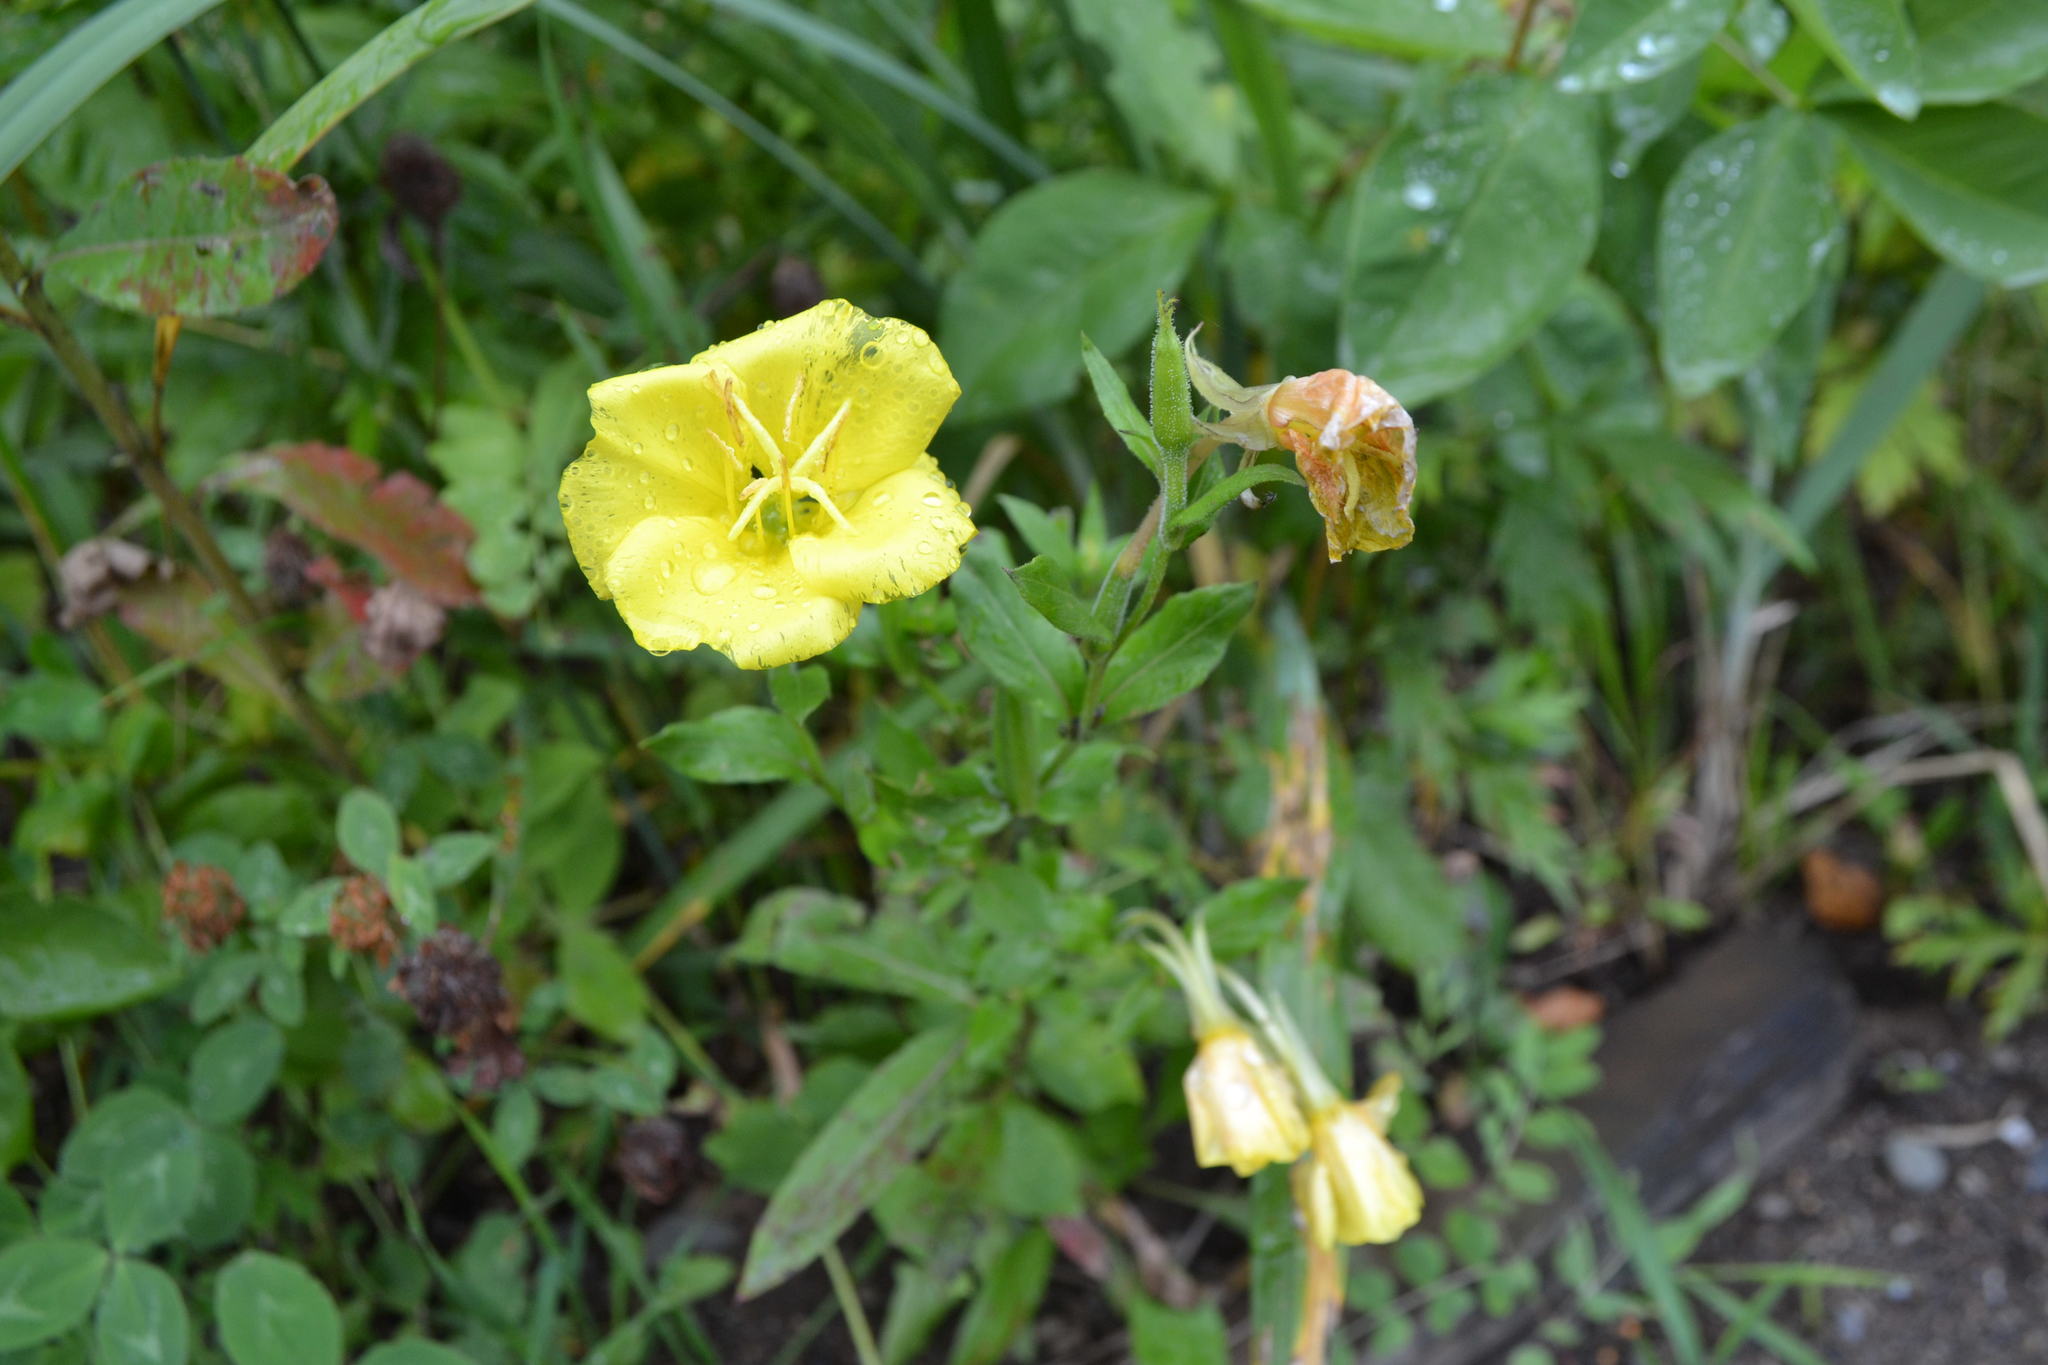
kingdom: Plantae
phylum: Tracheophyta
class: Magnoliopsida
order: Myrtales
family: Onagraceae
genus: Oenothera
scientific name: Oenothera biennis
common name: Common evening-primrose
